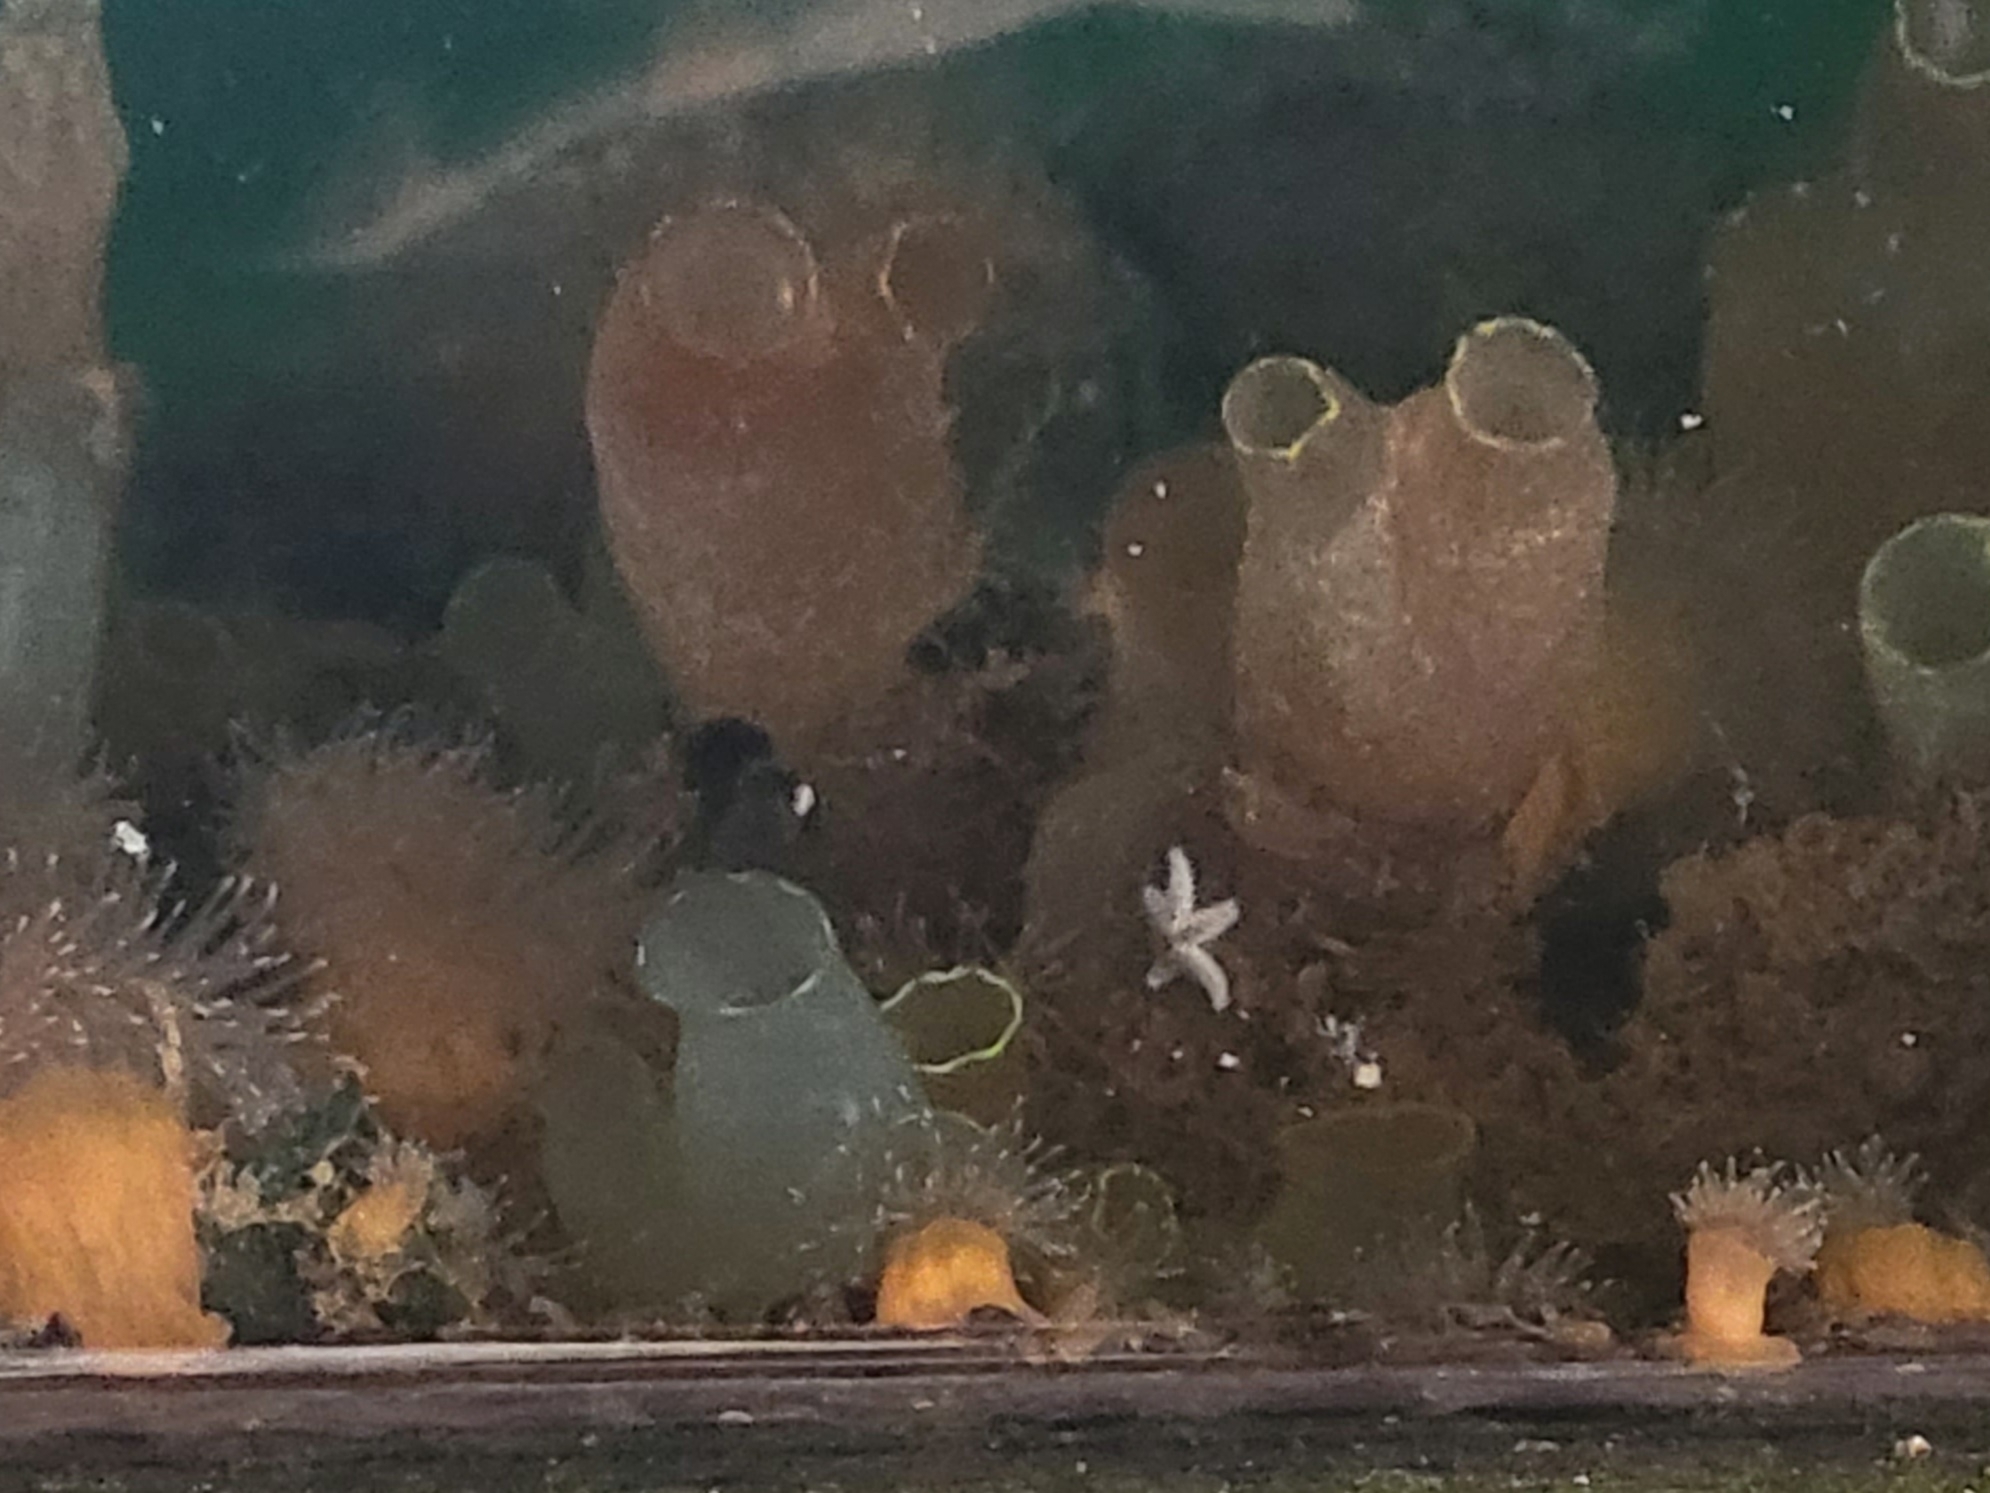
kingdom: Animalia
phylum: Chordata
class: Ascidiacea
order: Phlebobranchia
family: Cionidae
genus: Ciona
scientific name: Ciona intestinalis
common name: Vase tunicate
